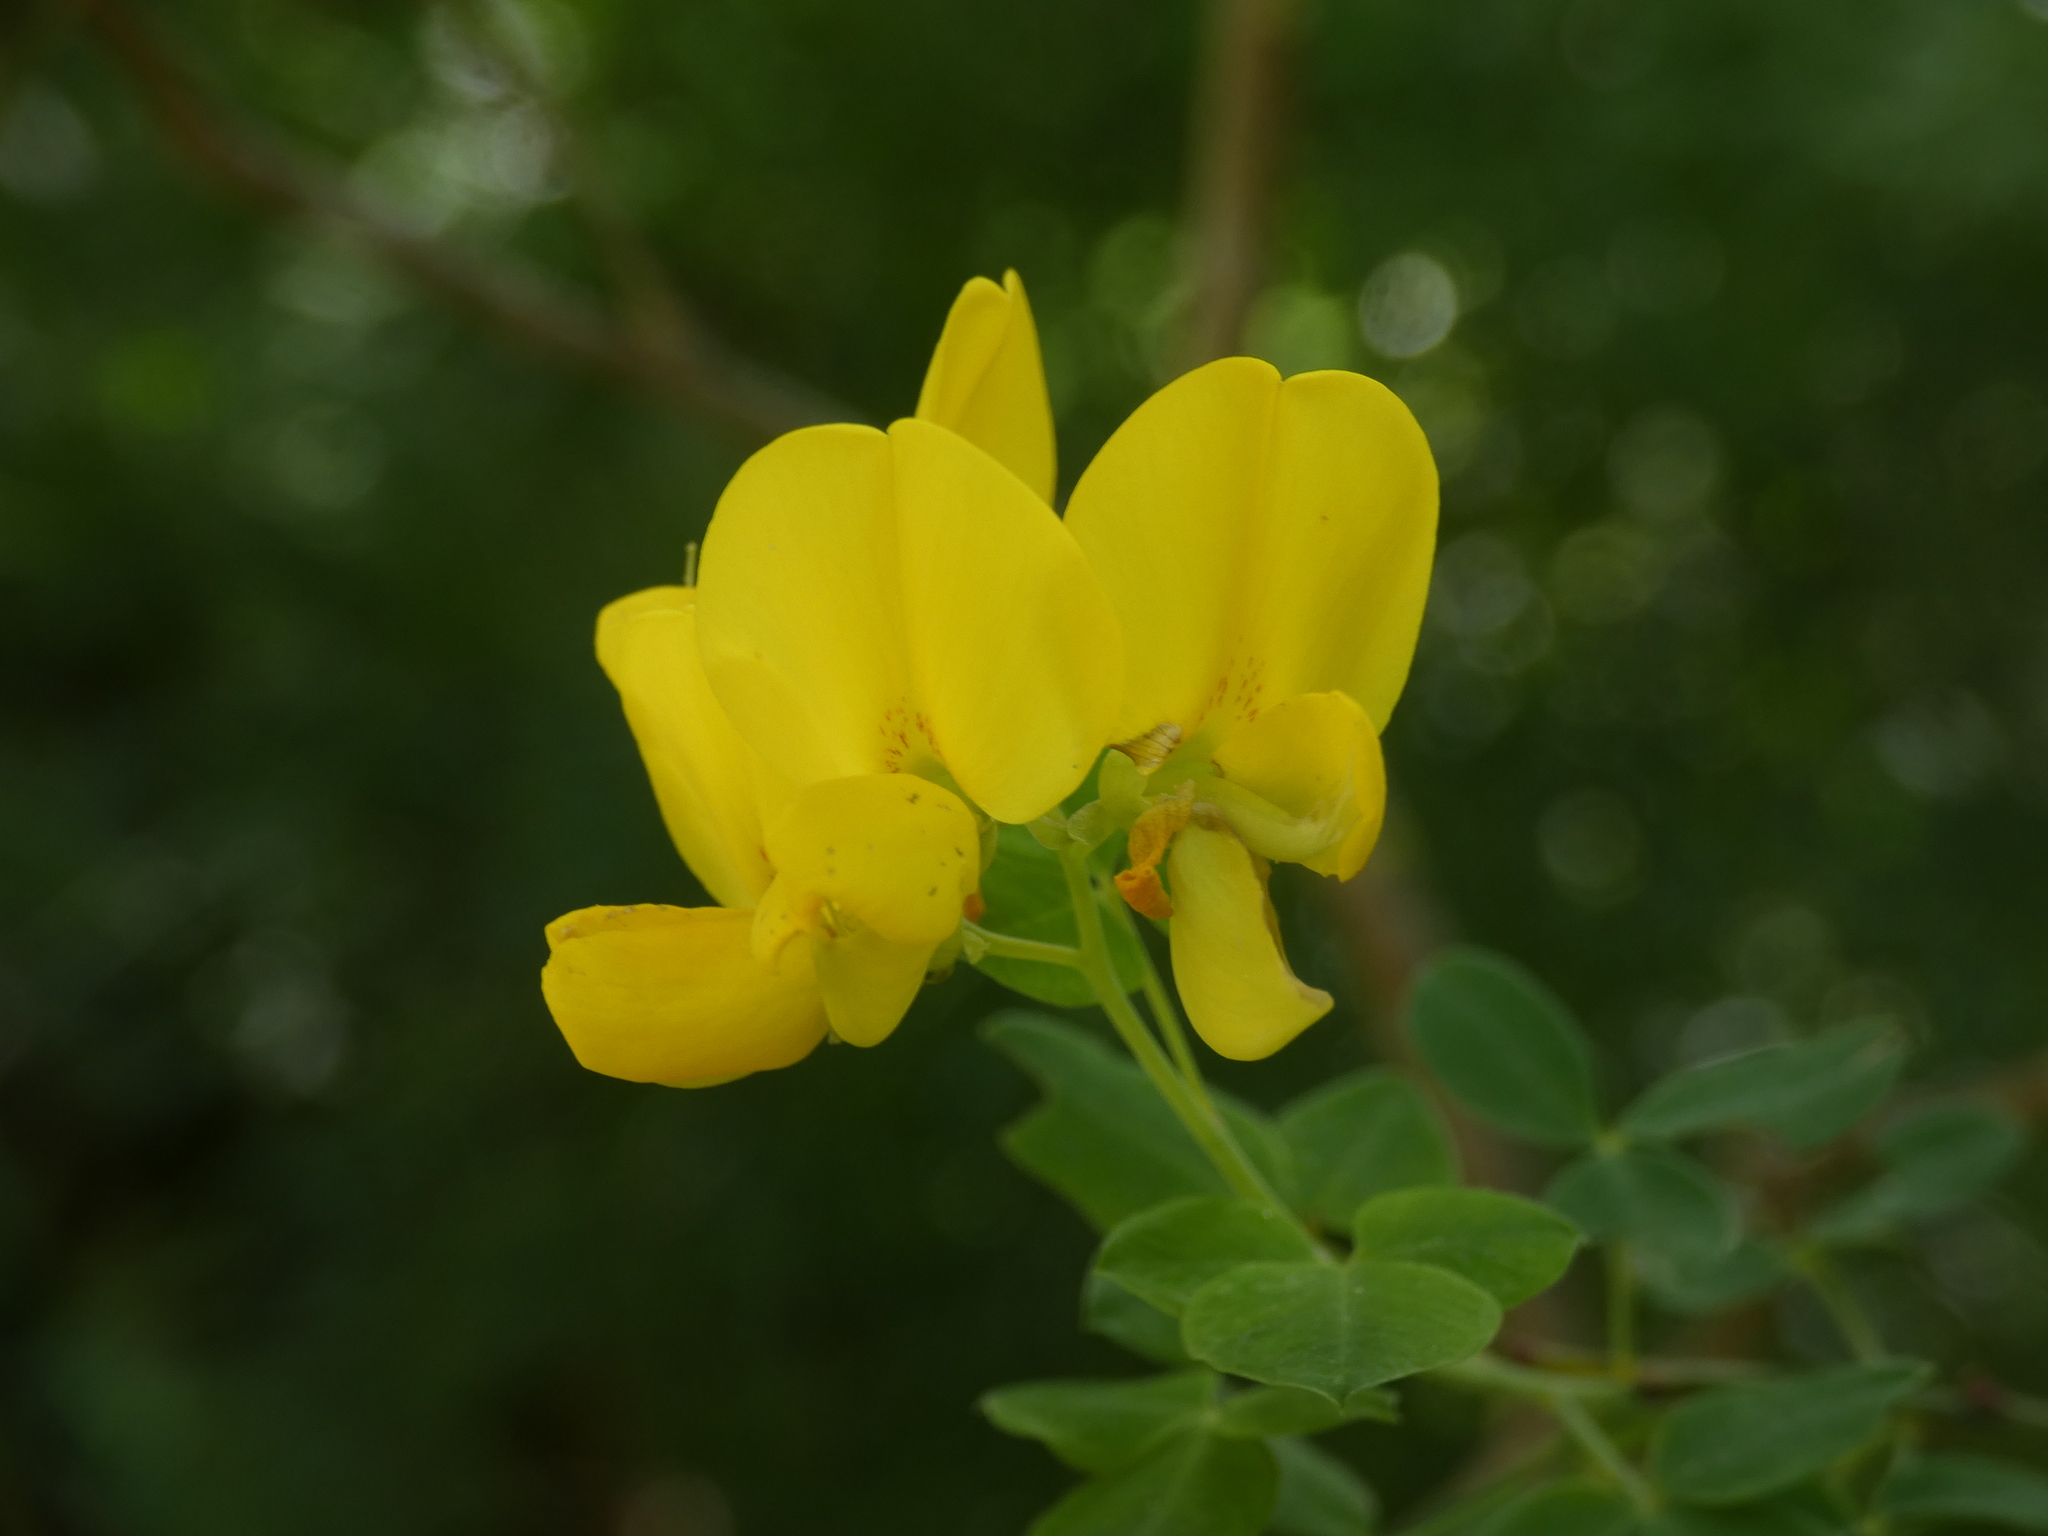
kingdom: Plantae
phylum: Tracheophyta
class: Magnoliopsida
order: Fabales
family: Fabaceae
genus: Cytisophyllum
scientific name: Cytisophyllum sessilifolium
